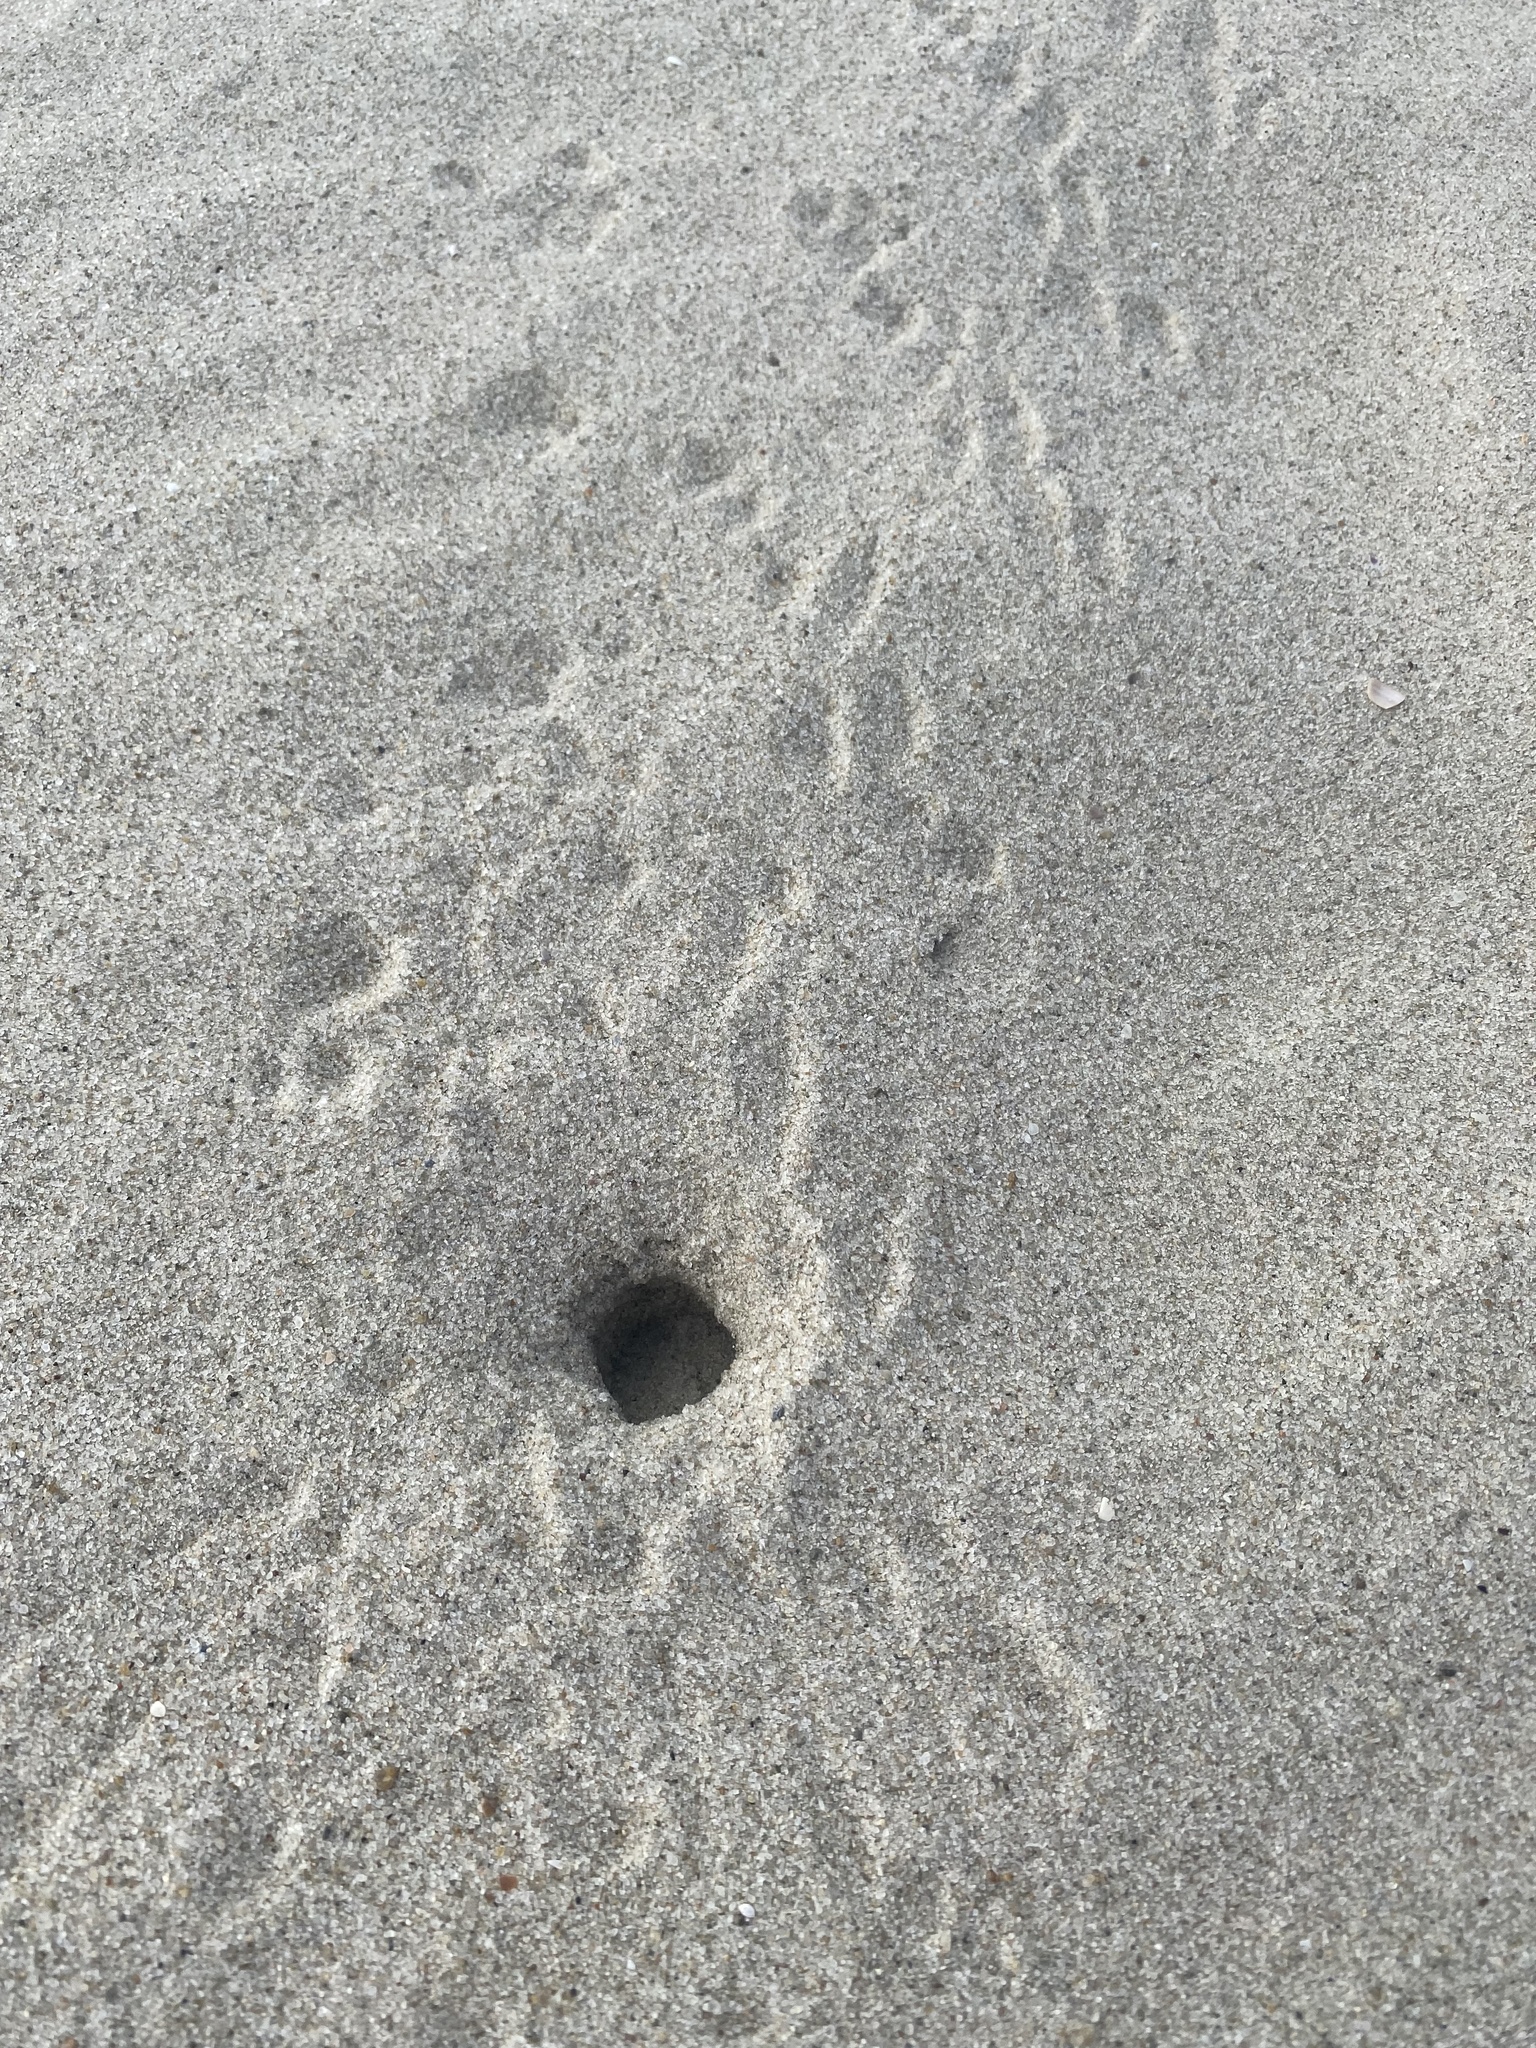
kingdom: Animalia
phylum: Arthropoda
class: Malacostraca
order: Decapoda
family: Ocypodidae
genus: Ocypode
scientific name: Ocypode quadrata
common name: Ghost crab
